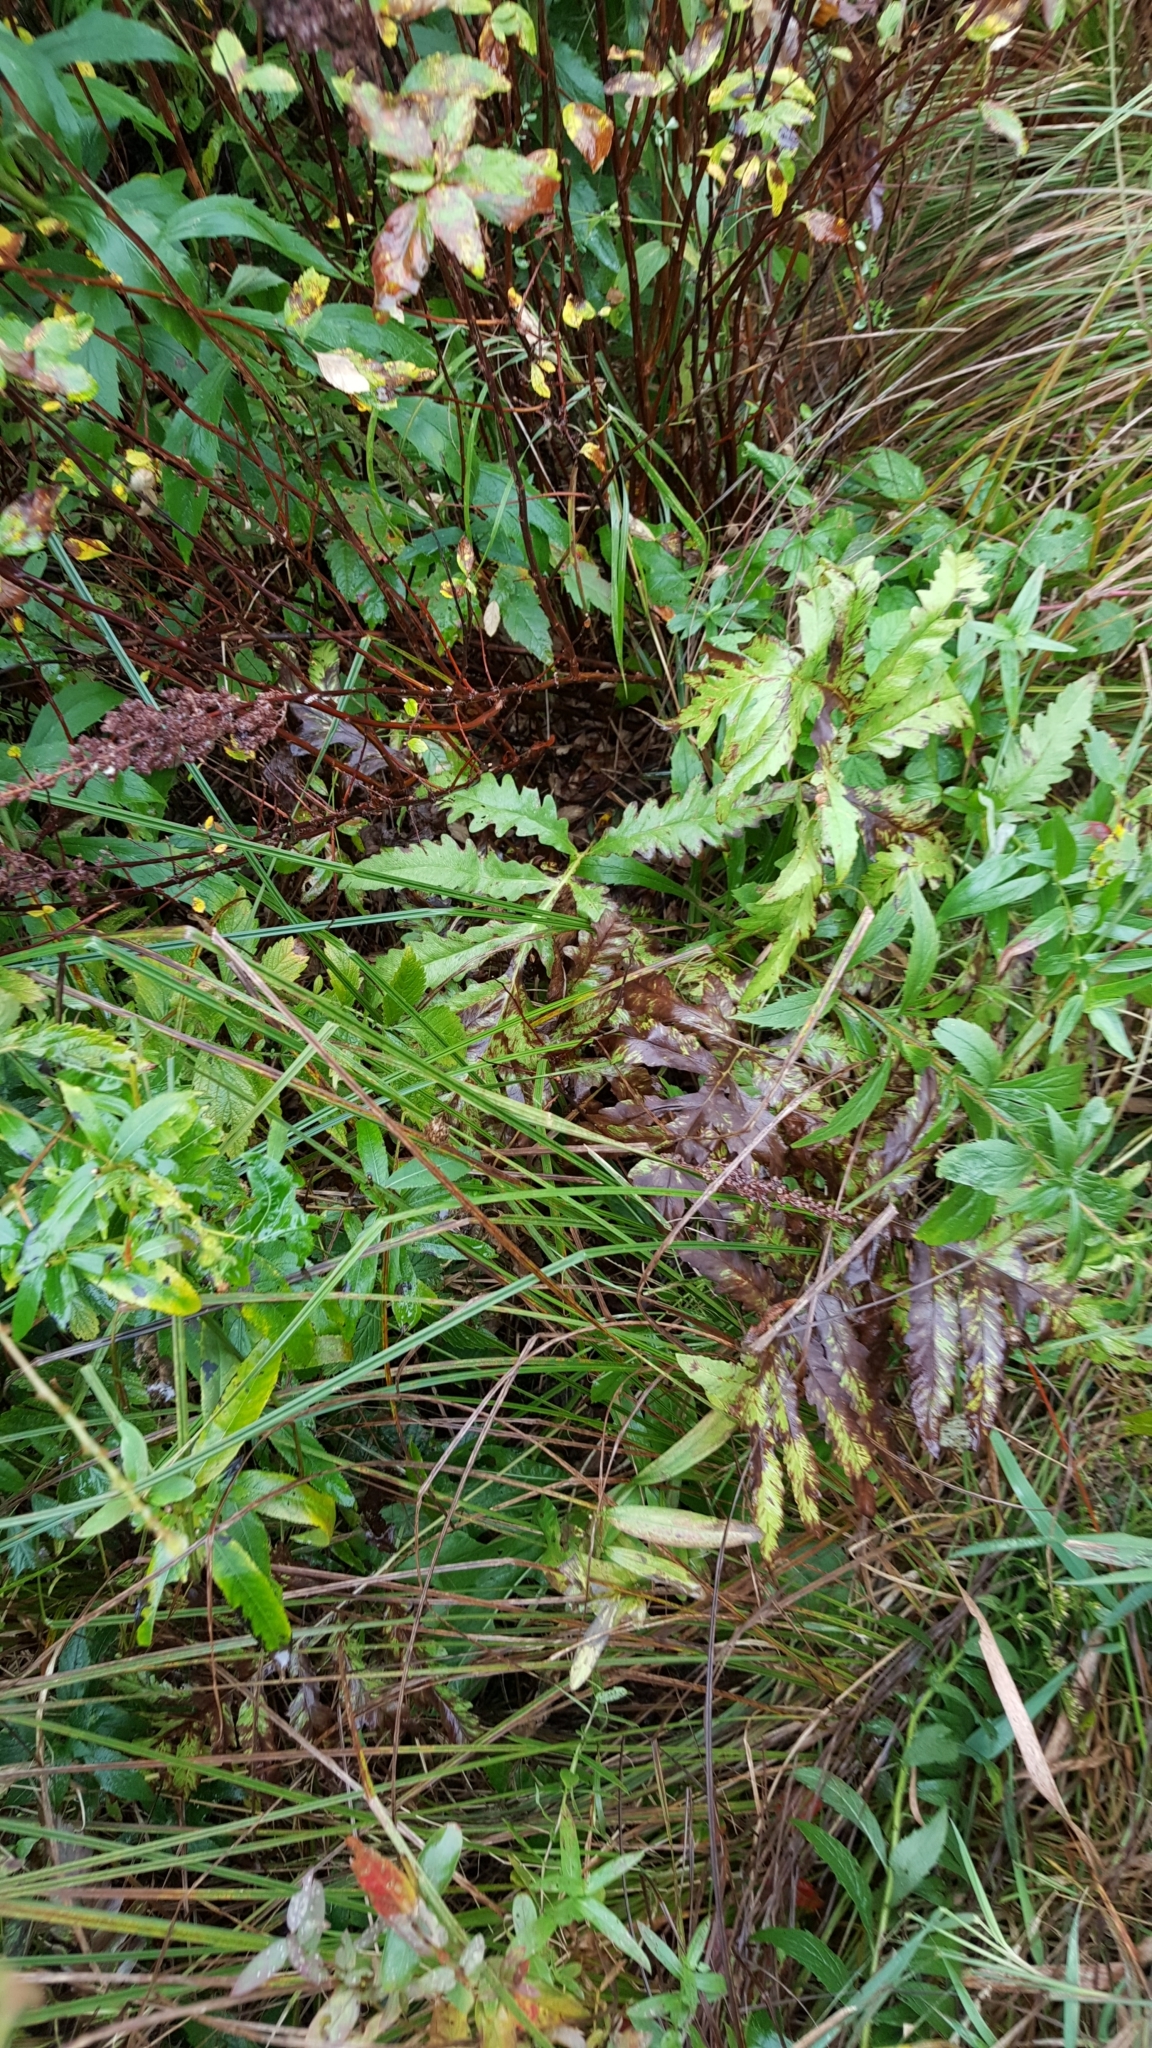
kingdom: Plantae
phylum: Tracheophyta
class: Polypodiopsida
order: Polypodiales
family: Onocleaceae
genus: Onoclea
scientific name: Onoclea sensibilis
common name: Sensitive fern
